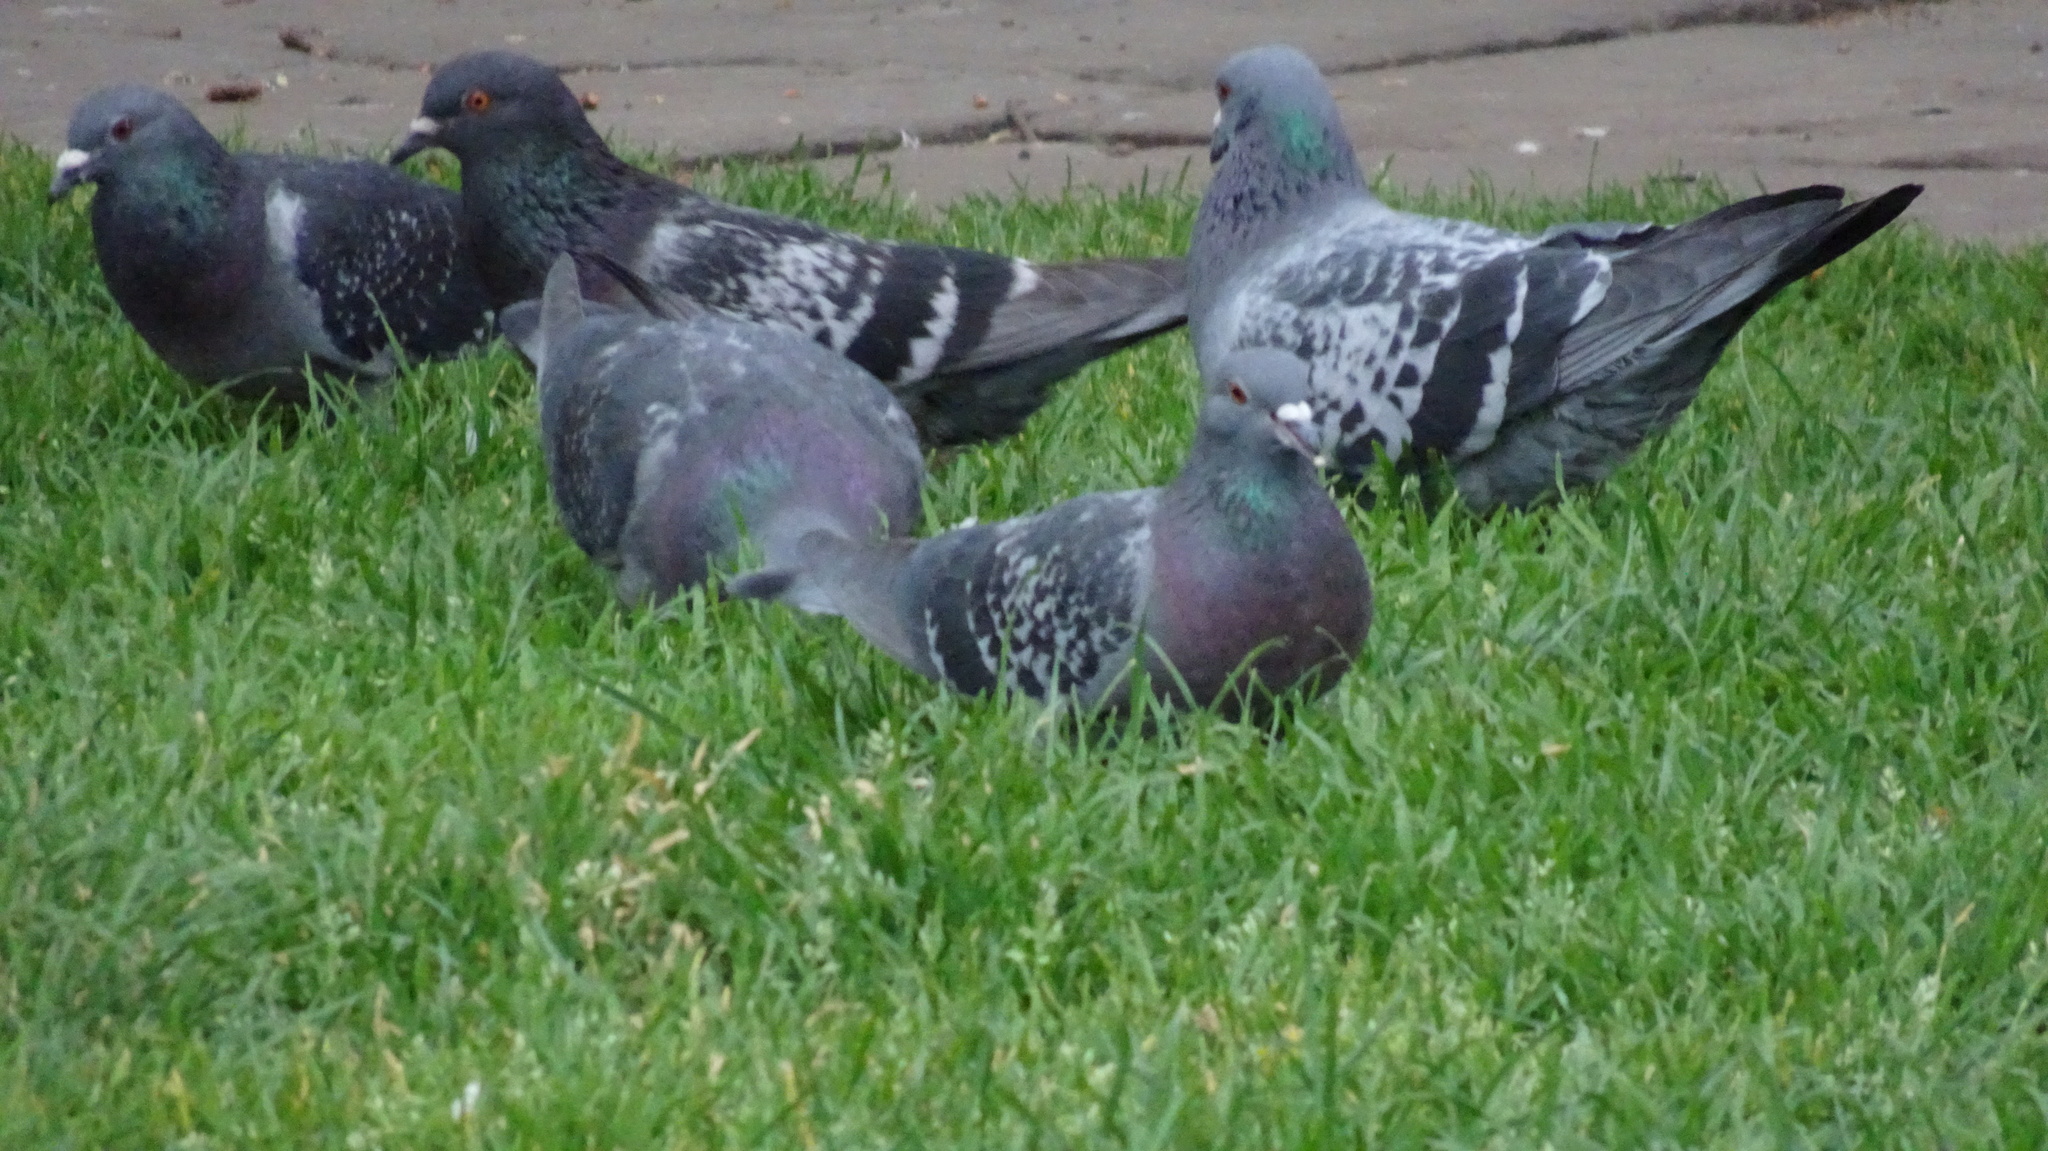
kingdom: Animalia
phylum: Chordata
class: Aves
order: Columbiformes
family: Columbidae
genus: Columba
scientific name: Columba livia
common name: Rock pigeon
